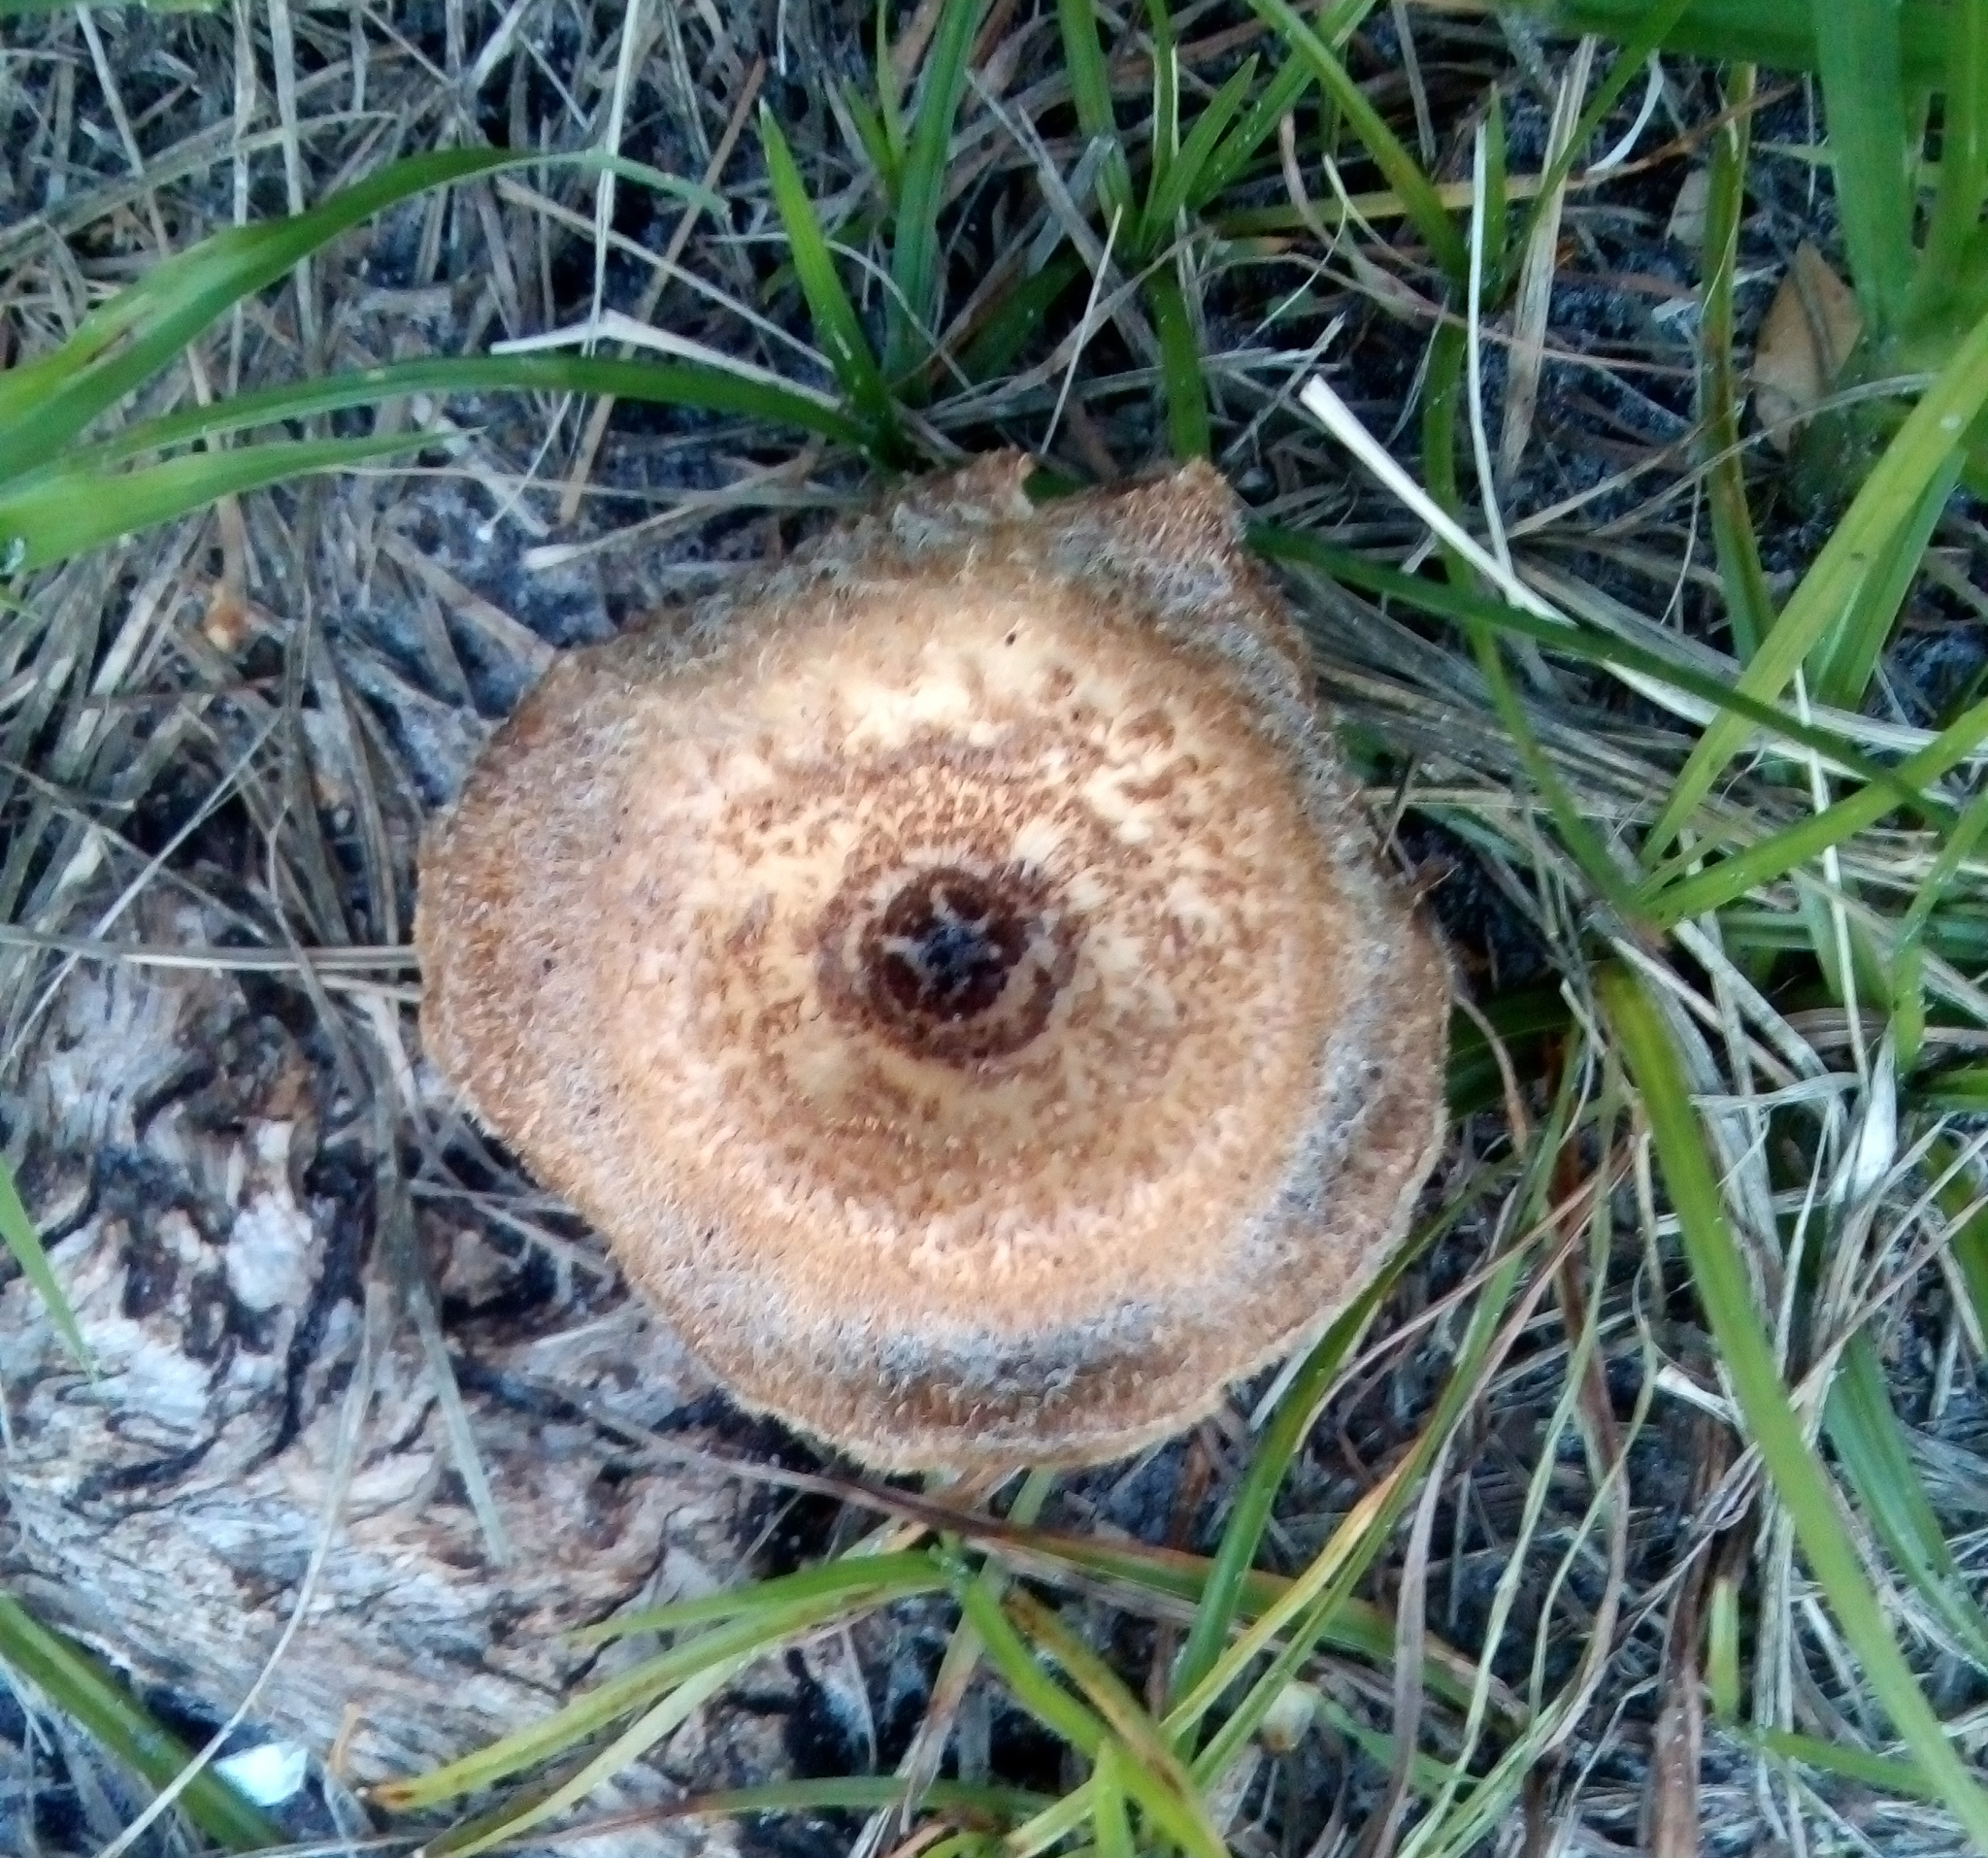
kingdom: Fungi
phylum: Basidiomycota
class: Agaricomycetes
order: Polyporales
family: Polyporaceae
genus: Lentinus
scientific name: Lentinus crinitus
